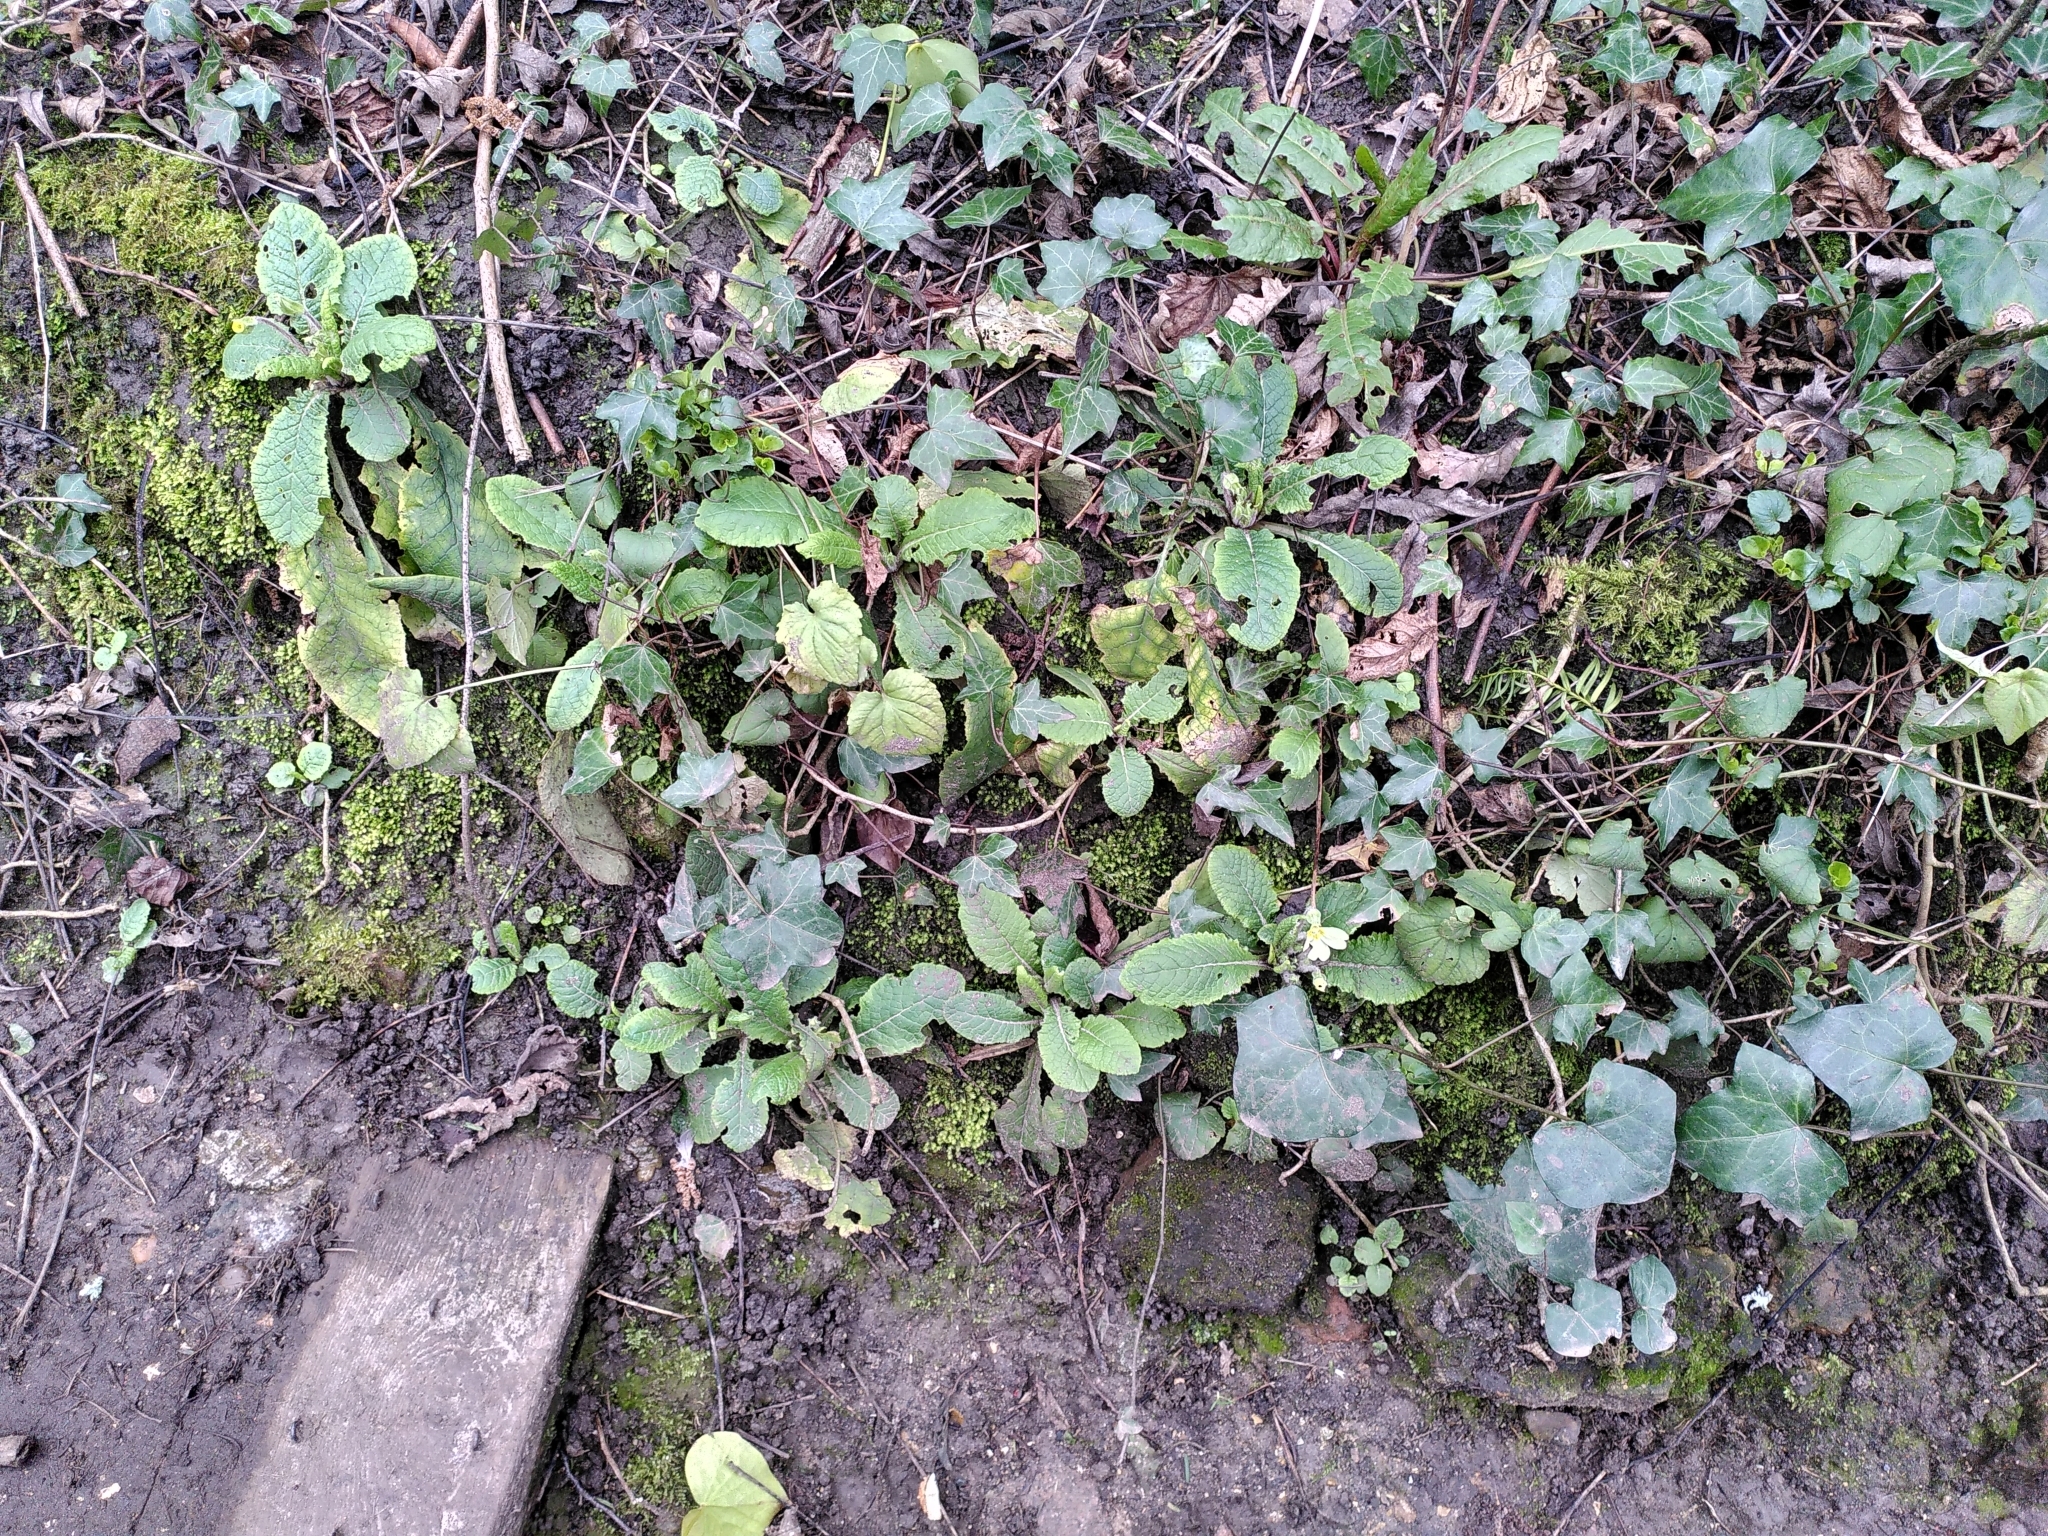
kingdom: Plantae
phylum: Tracheophyta
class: Magnoliopsida
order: Ericales
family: Primulaceae
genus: Primula
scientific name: Primula vulgaris
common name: Primrose
